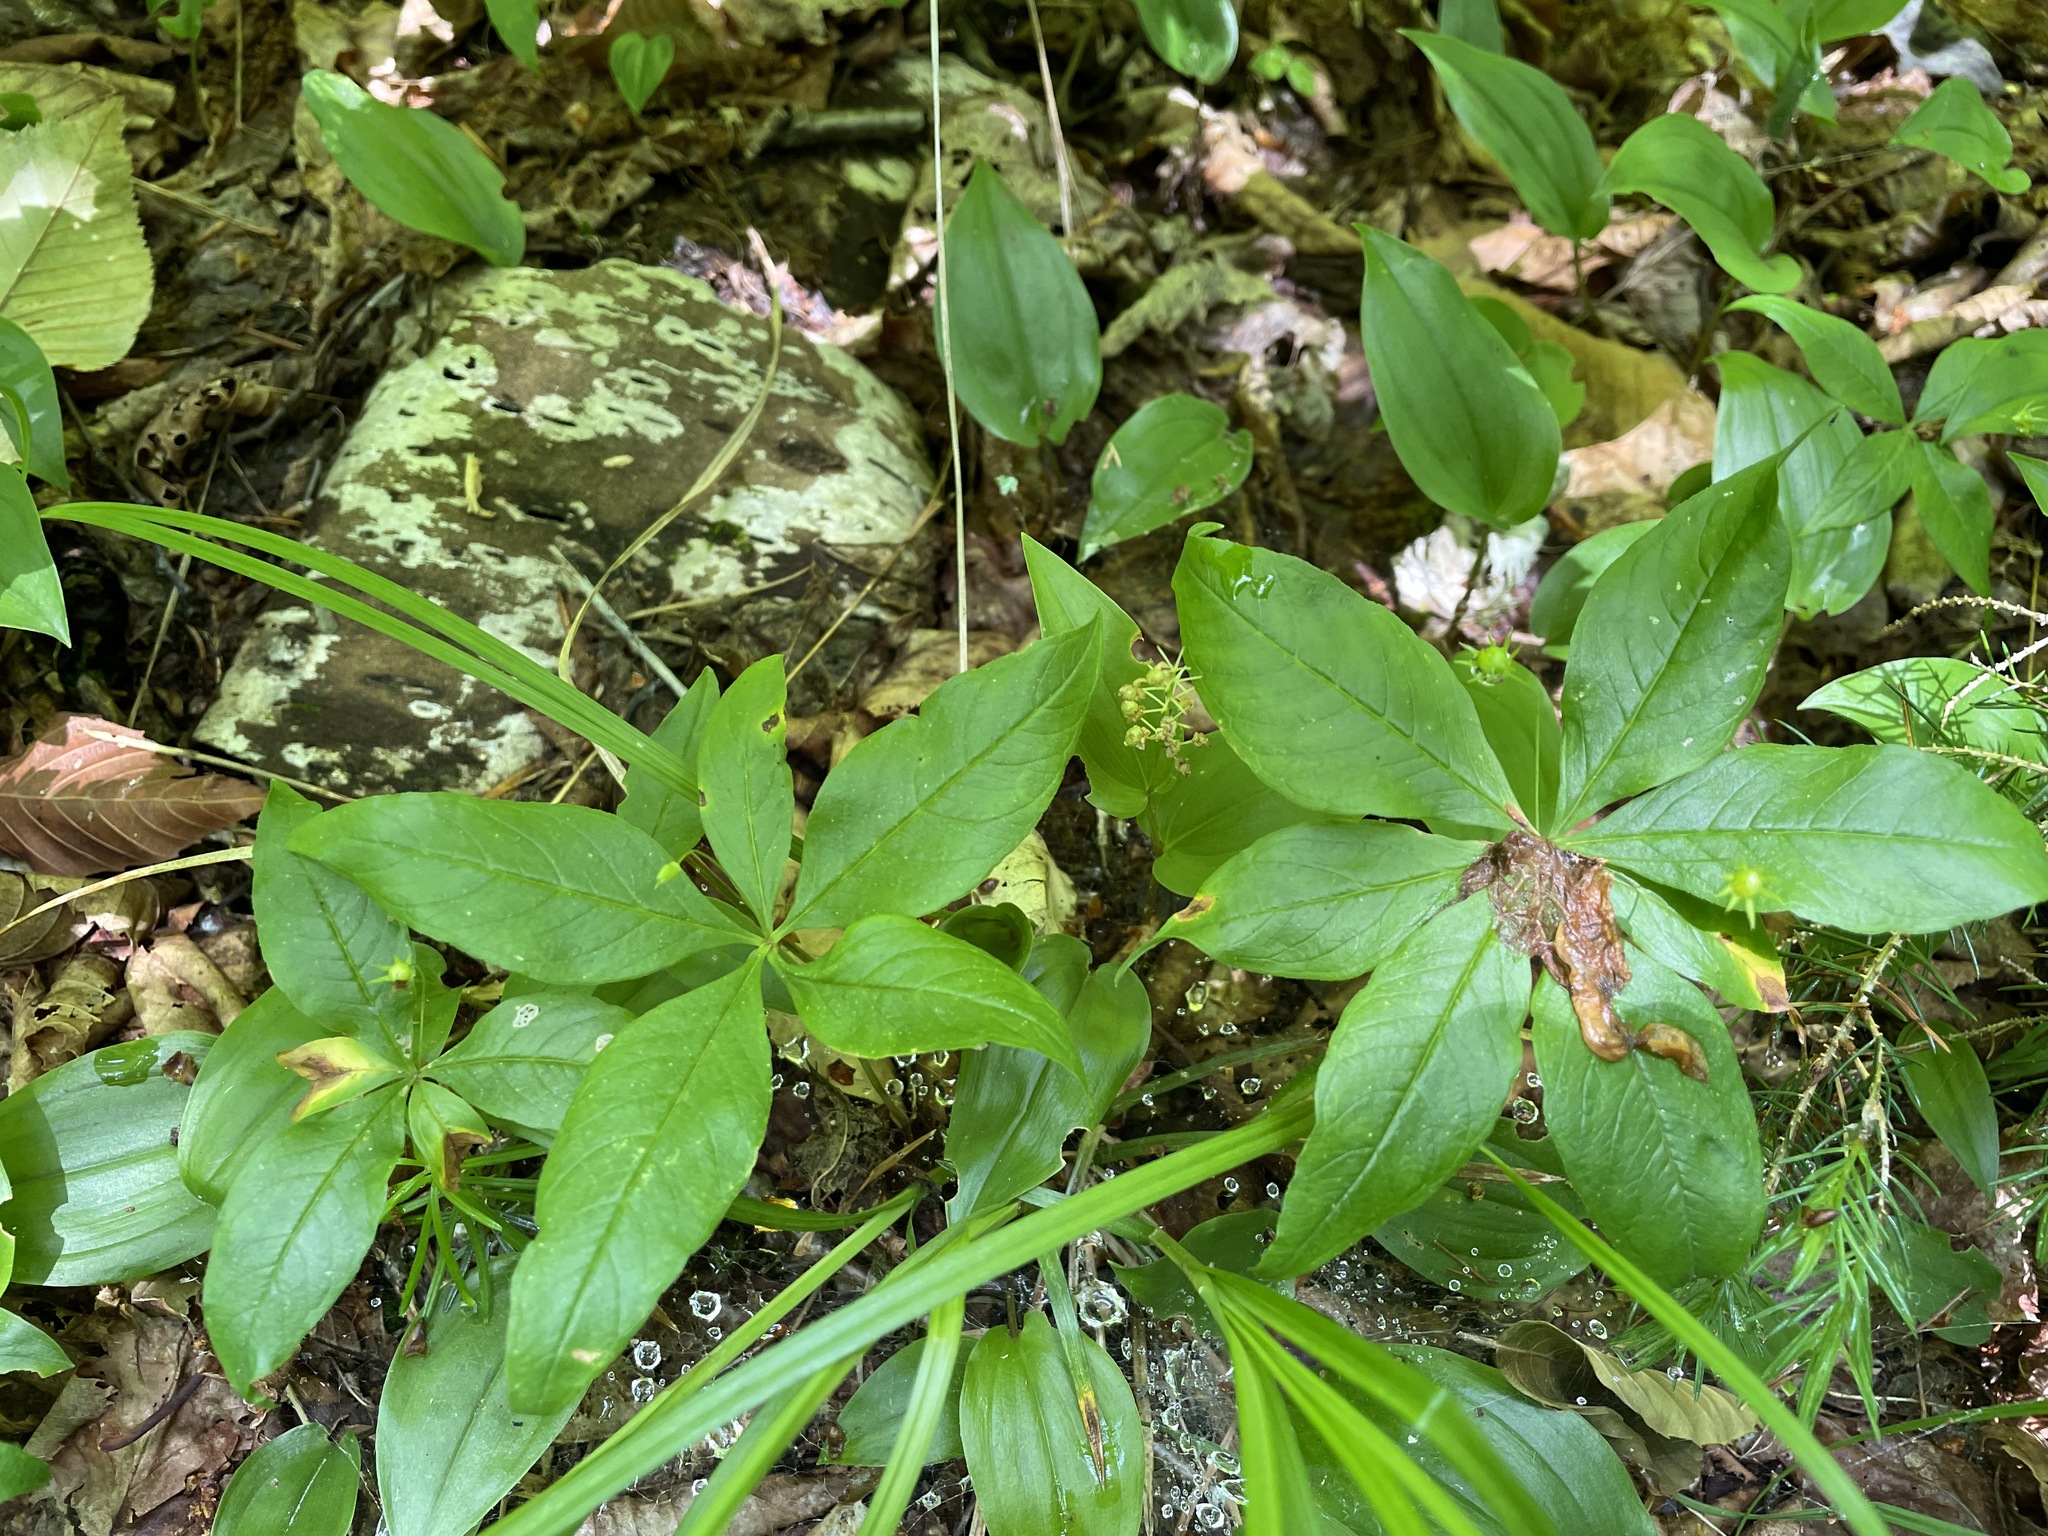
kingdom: Plantae
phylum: Tracheophyta
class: Magnoliopsida
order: Ericales
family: Primulaceae
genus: Lysimachia
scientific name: Lysimachia borealis
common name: American starflower
